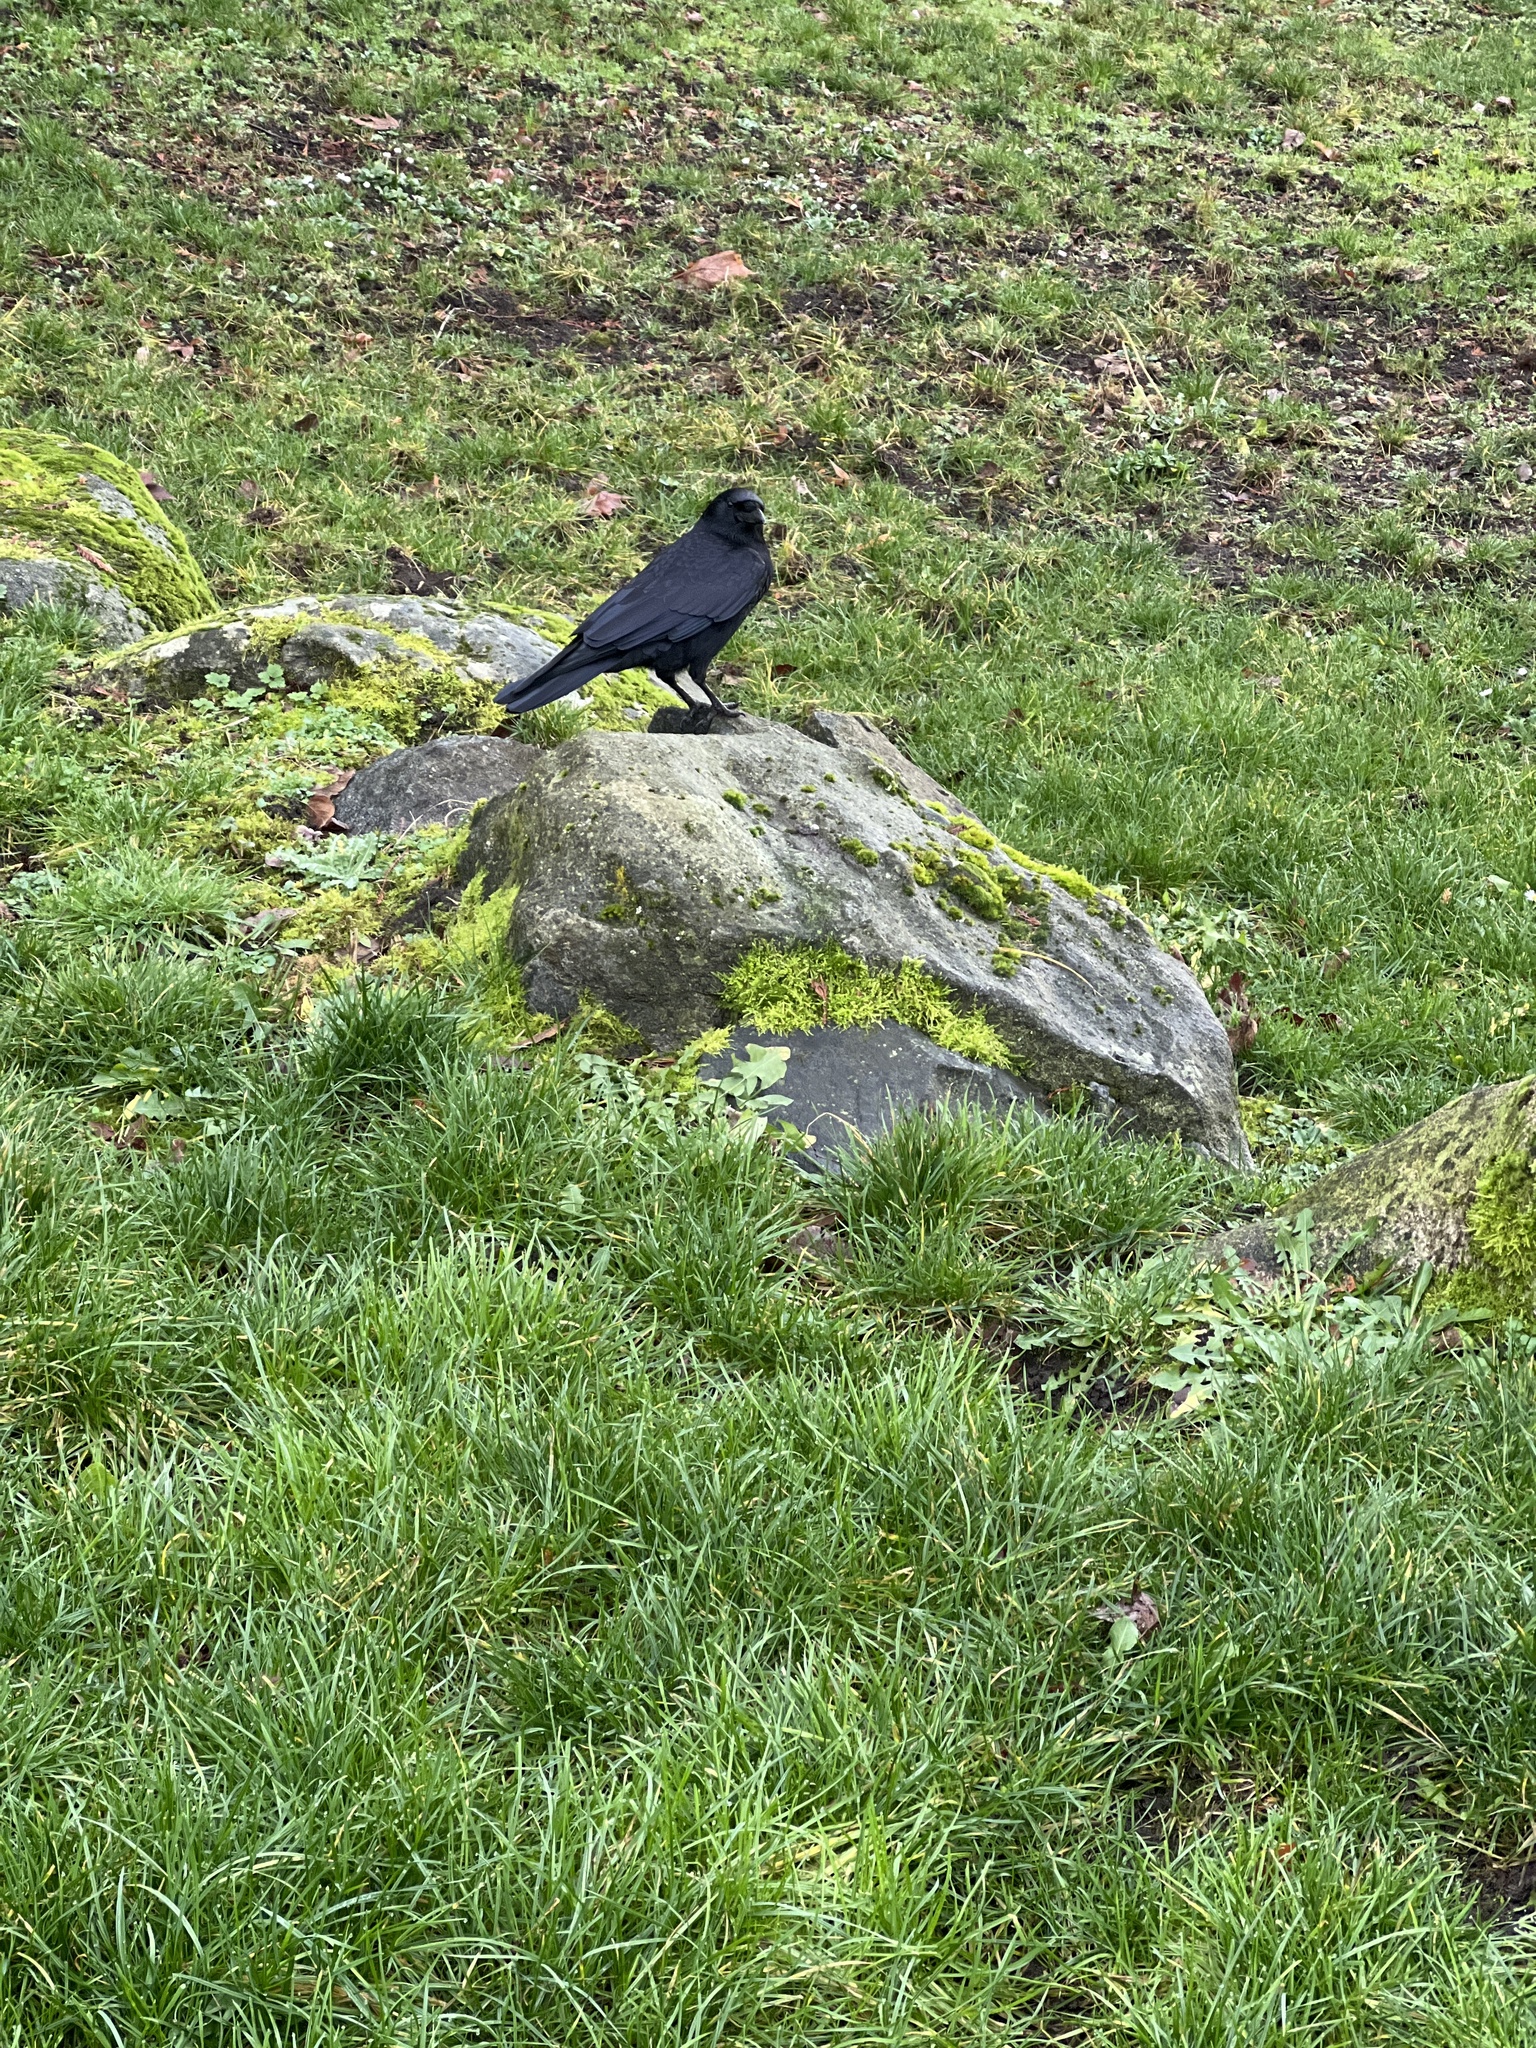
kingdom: Animalia
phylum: Chordata
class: Aves
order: Passeriformes
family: Corvidae
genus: Corvus
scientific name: Corvus brachyrhynchos
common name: American crow
